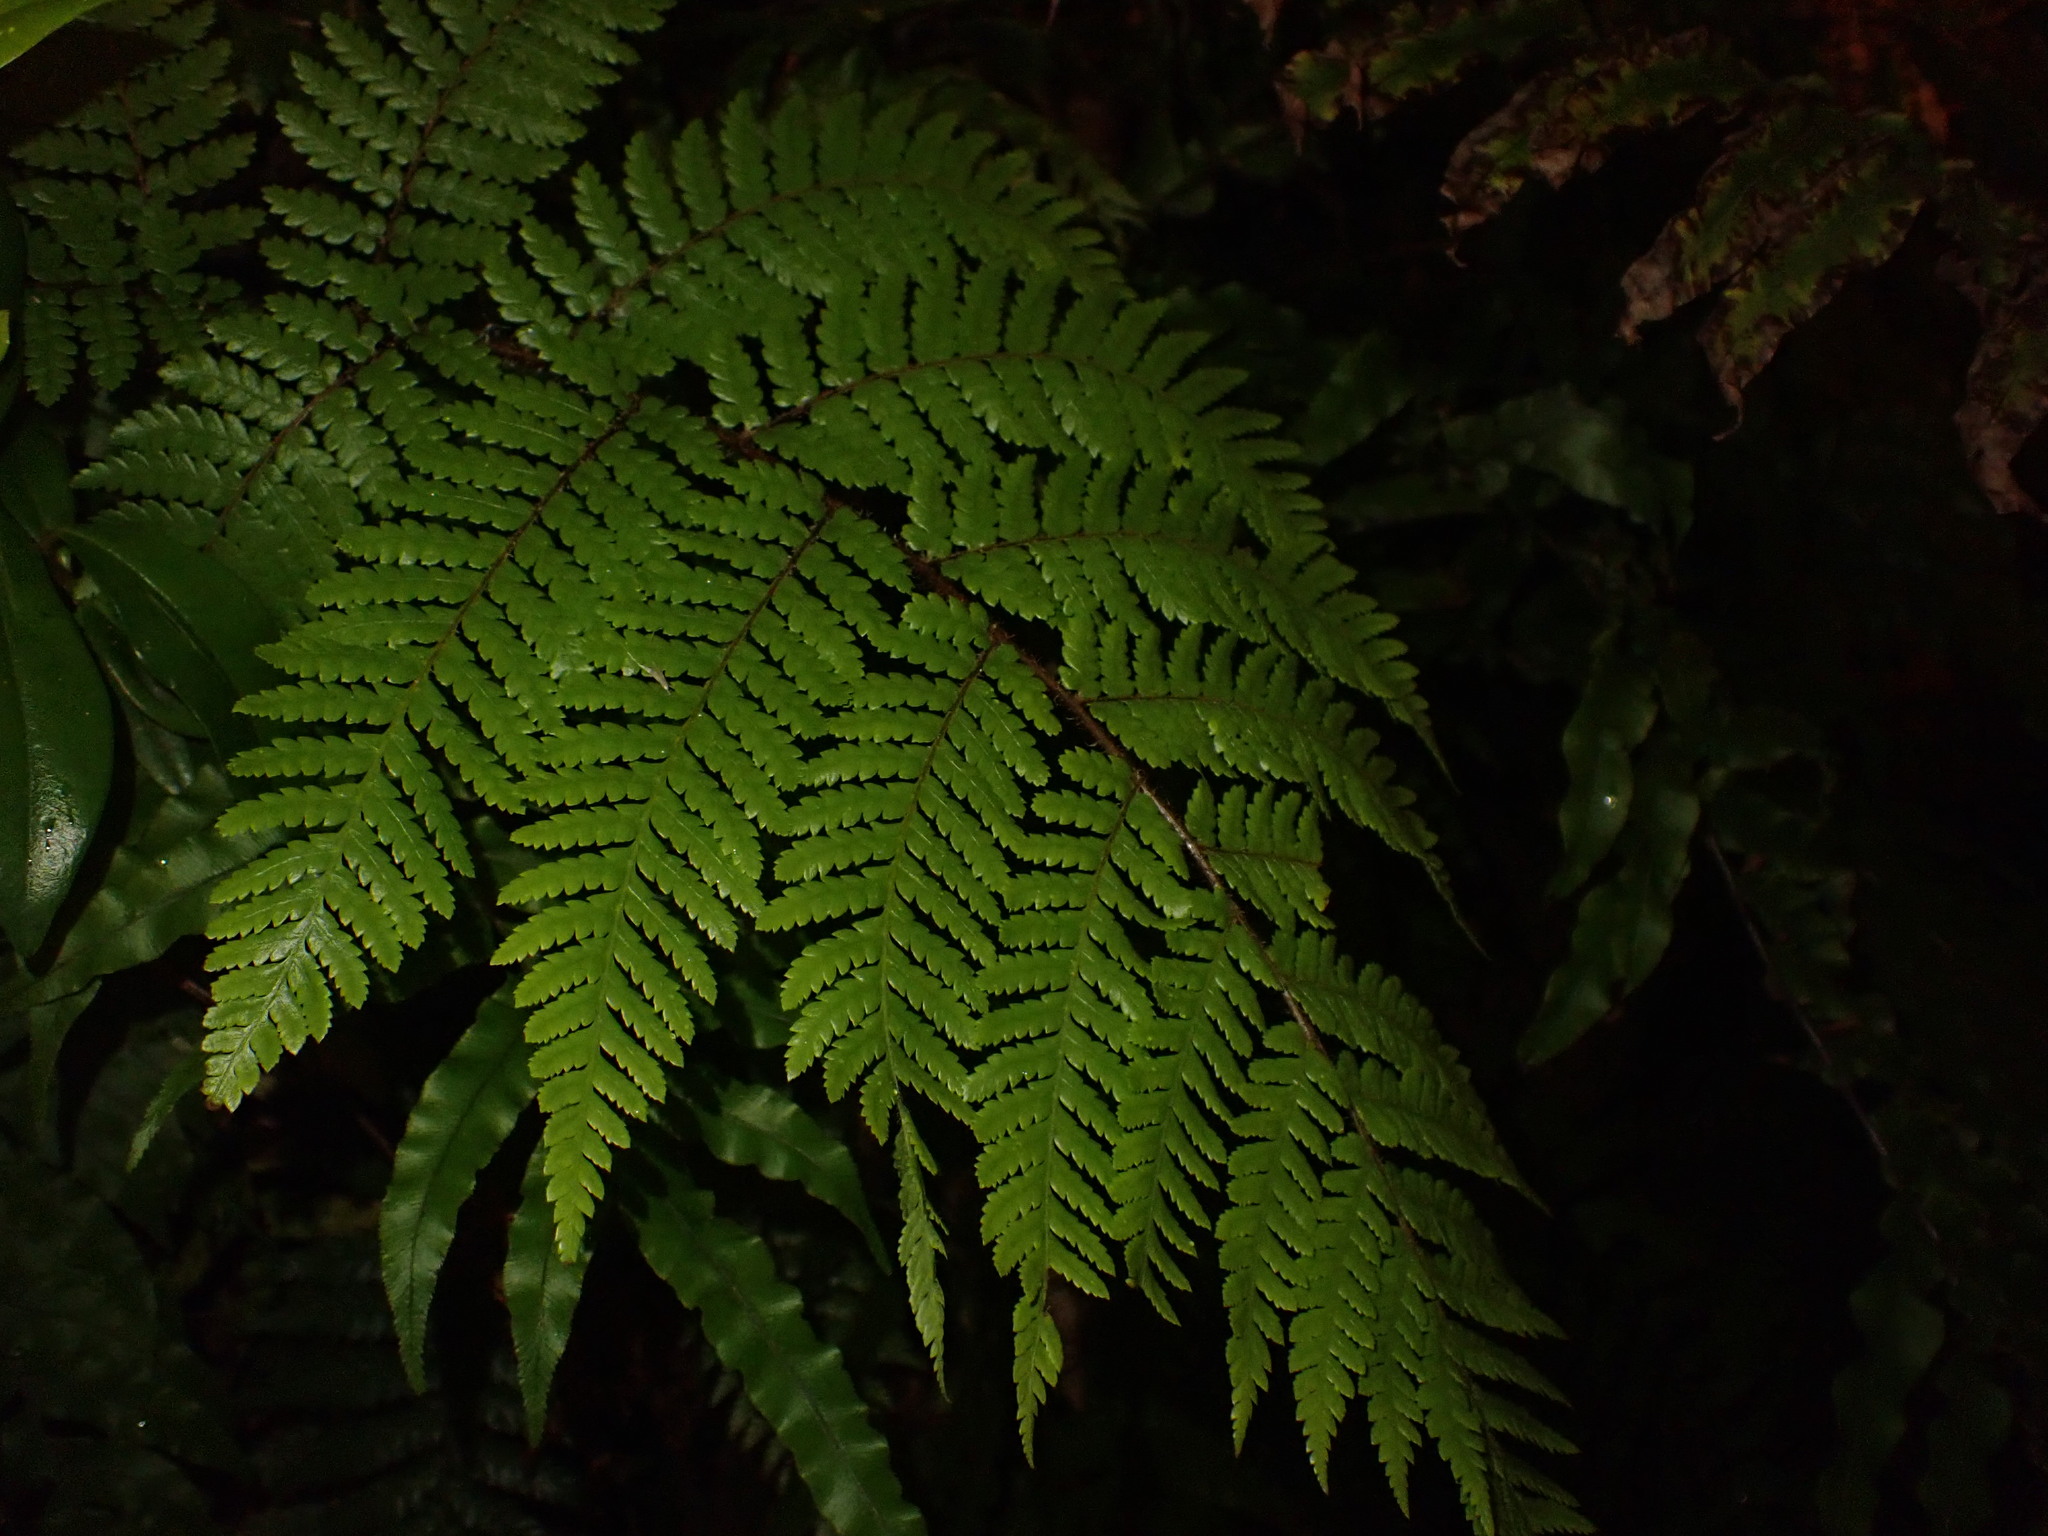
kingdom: Plantae
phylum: Tracheophyta
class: Polypodiopsida
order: Cyatheales
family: Cyatheaceae
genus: Alsophila
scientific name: Alsophila dealbata
